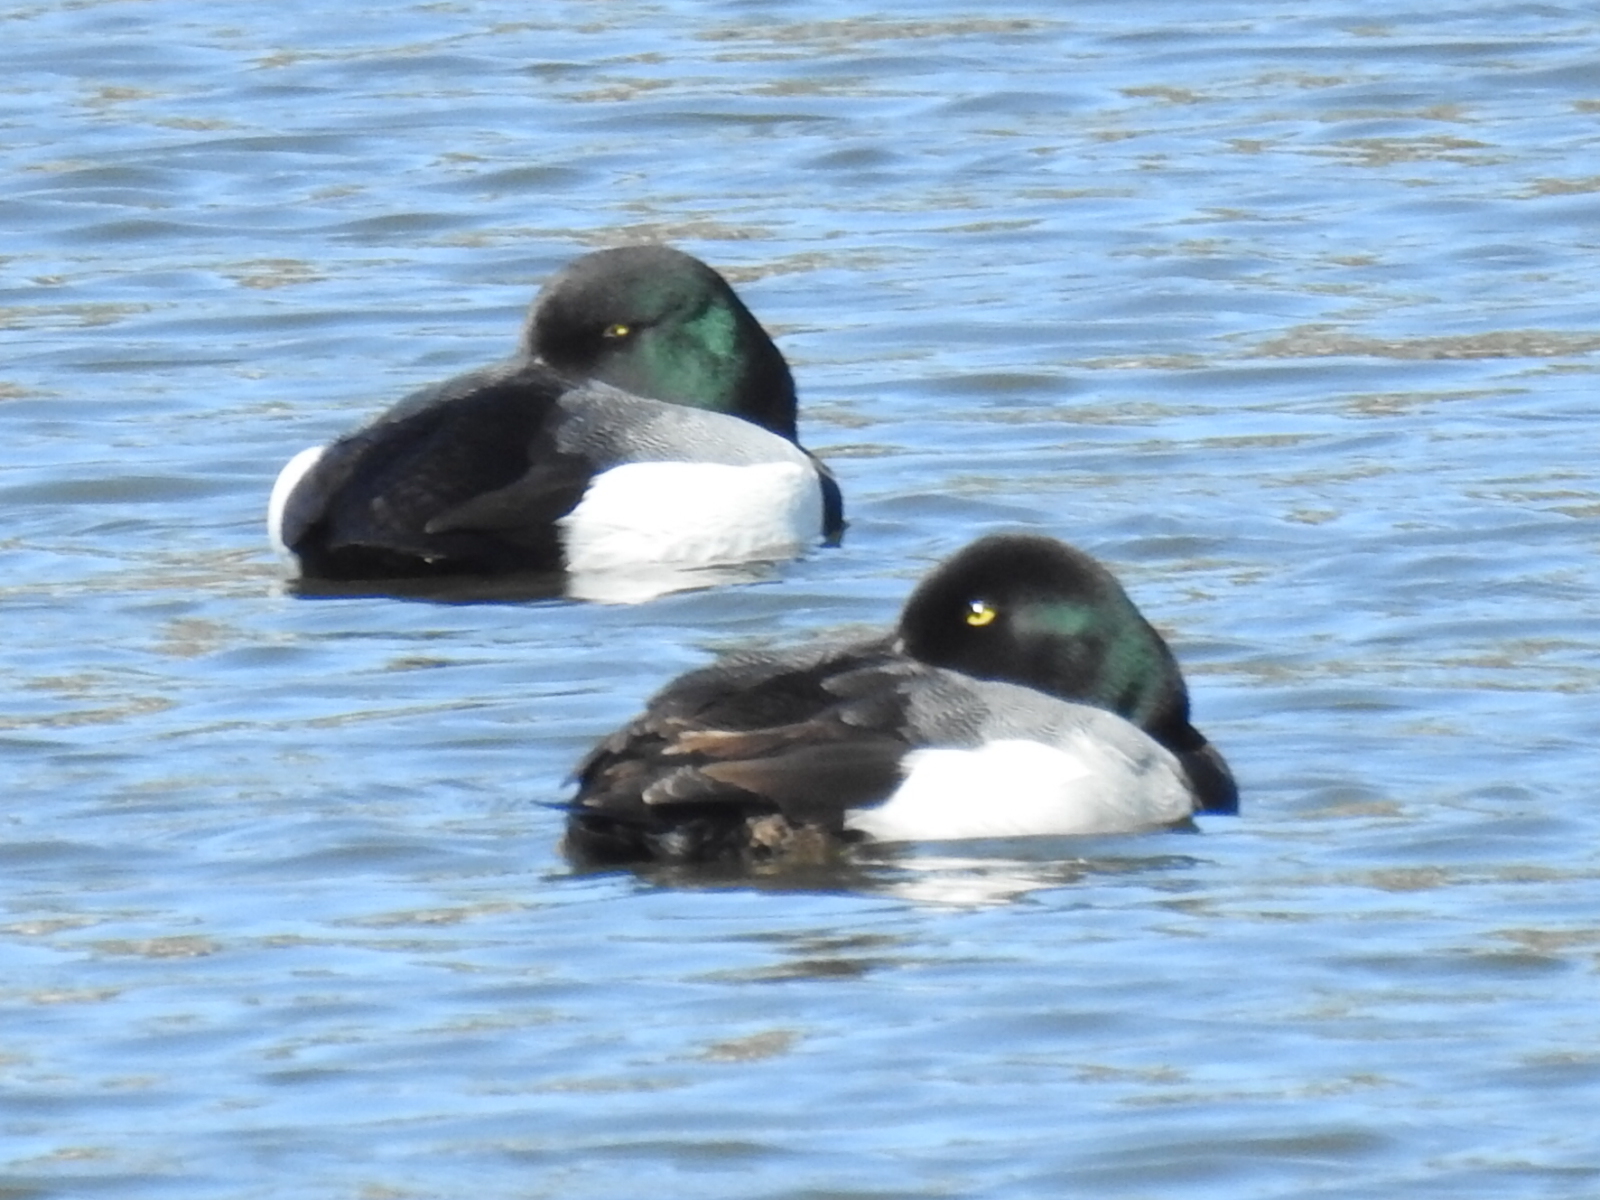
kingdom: Animalia
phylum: Chordata
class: Aves
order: Anseriformes
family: Anatidae
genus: Aythya
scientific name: Aythya marila
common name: Greater scaup
